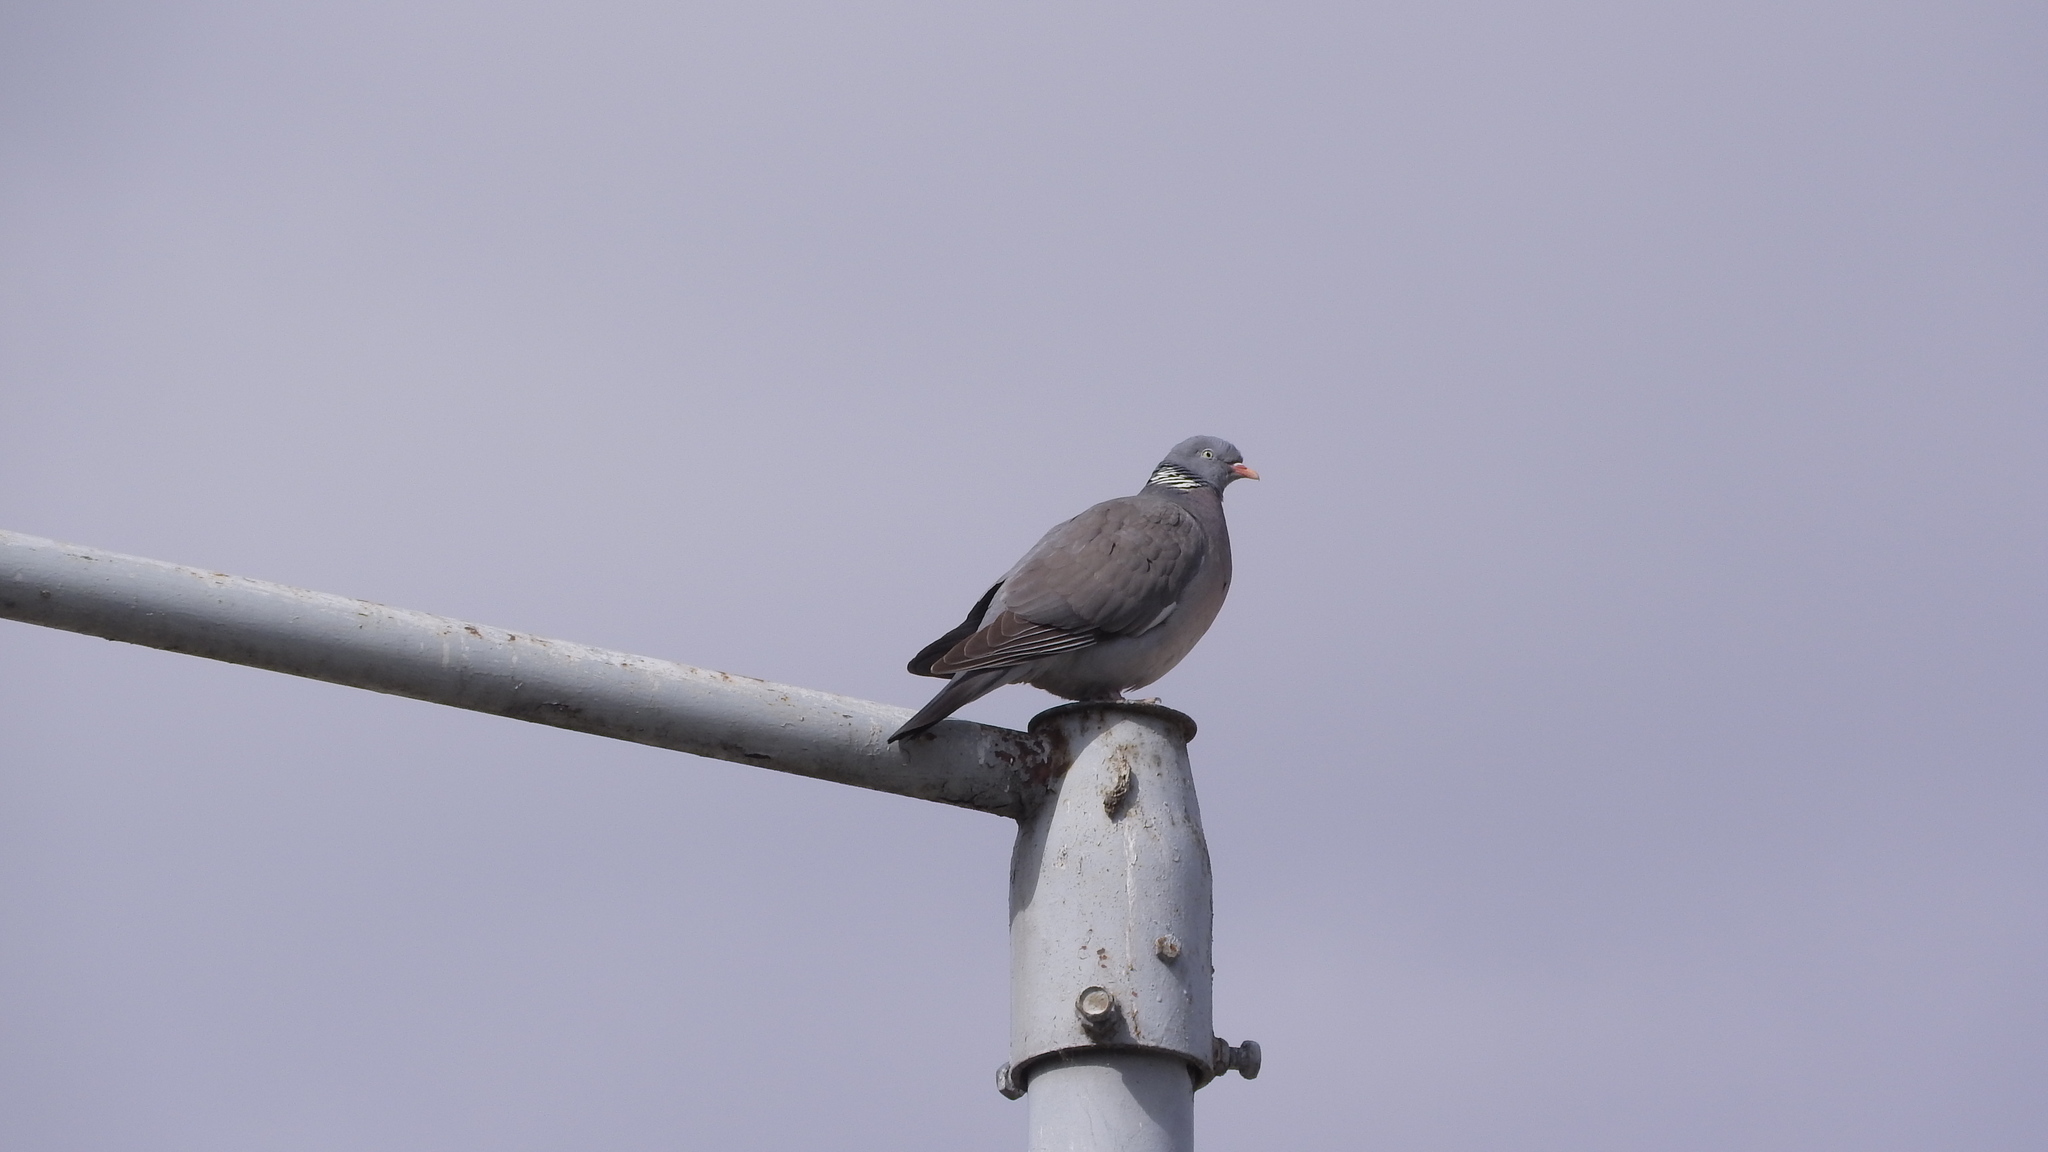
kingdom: Animalia
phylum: Chordata
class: Aves
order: Columbiformes
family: Columbidae
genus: Columba
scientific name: Columba palumbus
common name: Common wood pigeon
